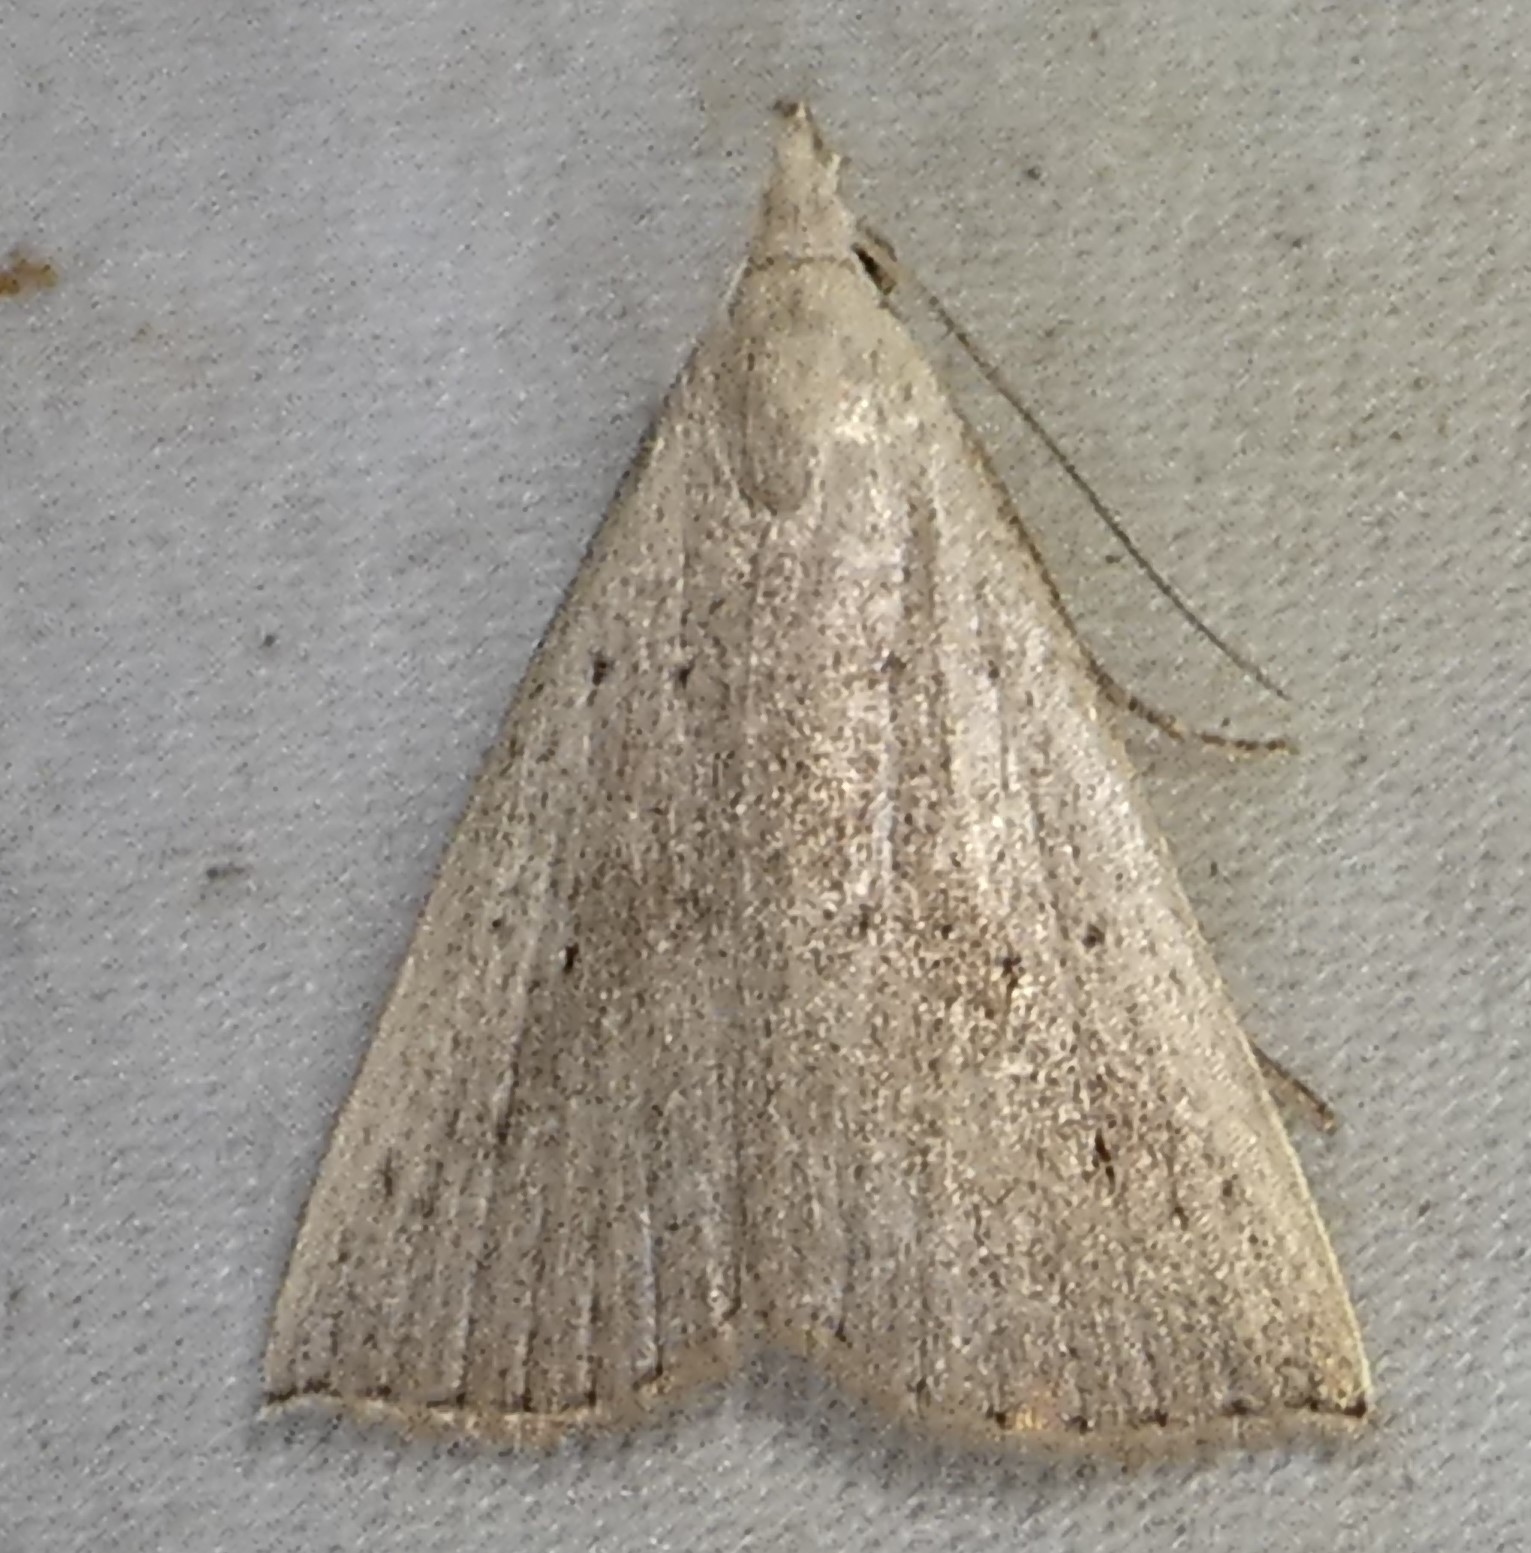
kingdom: Animalia
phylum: Arthropoda
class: Insecta
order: Lepidoptera
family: Erebidae
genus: Macrochilo
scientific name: Macrochilo louisiana
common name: Louisiana macrochilo
